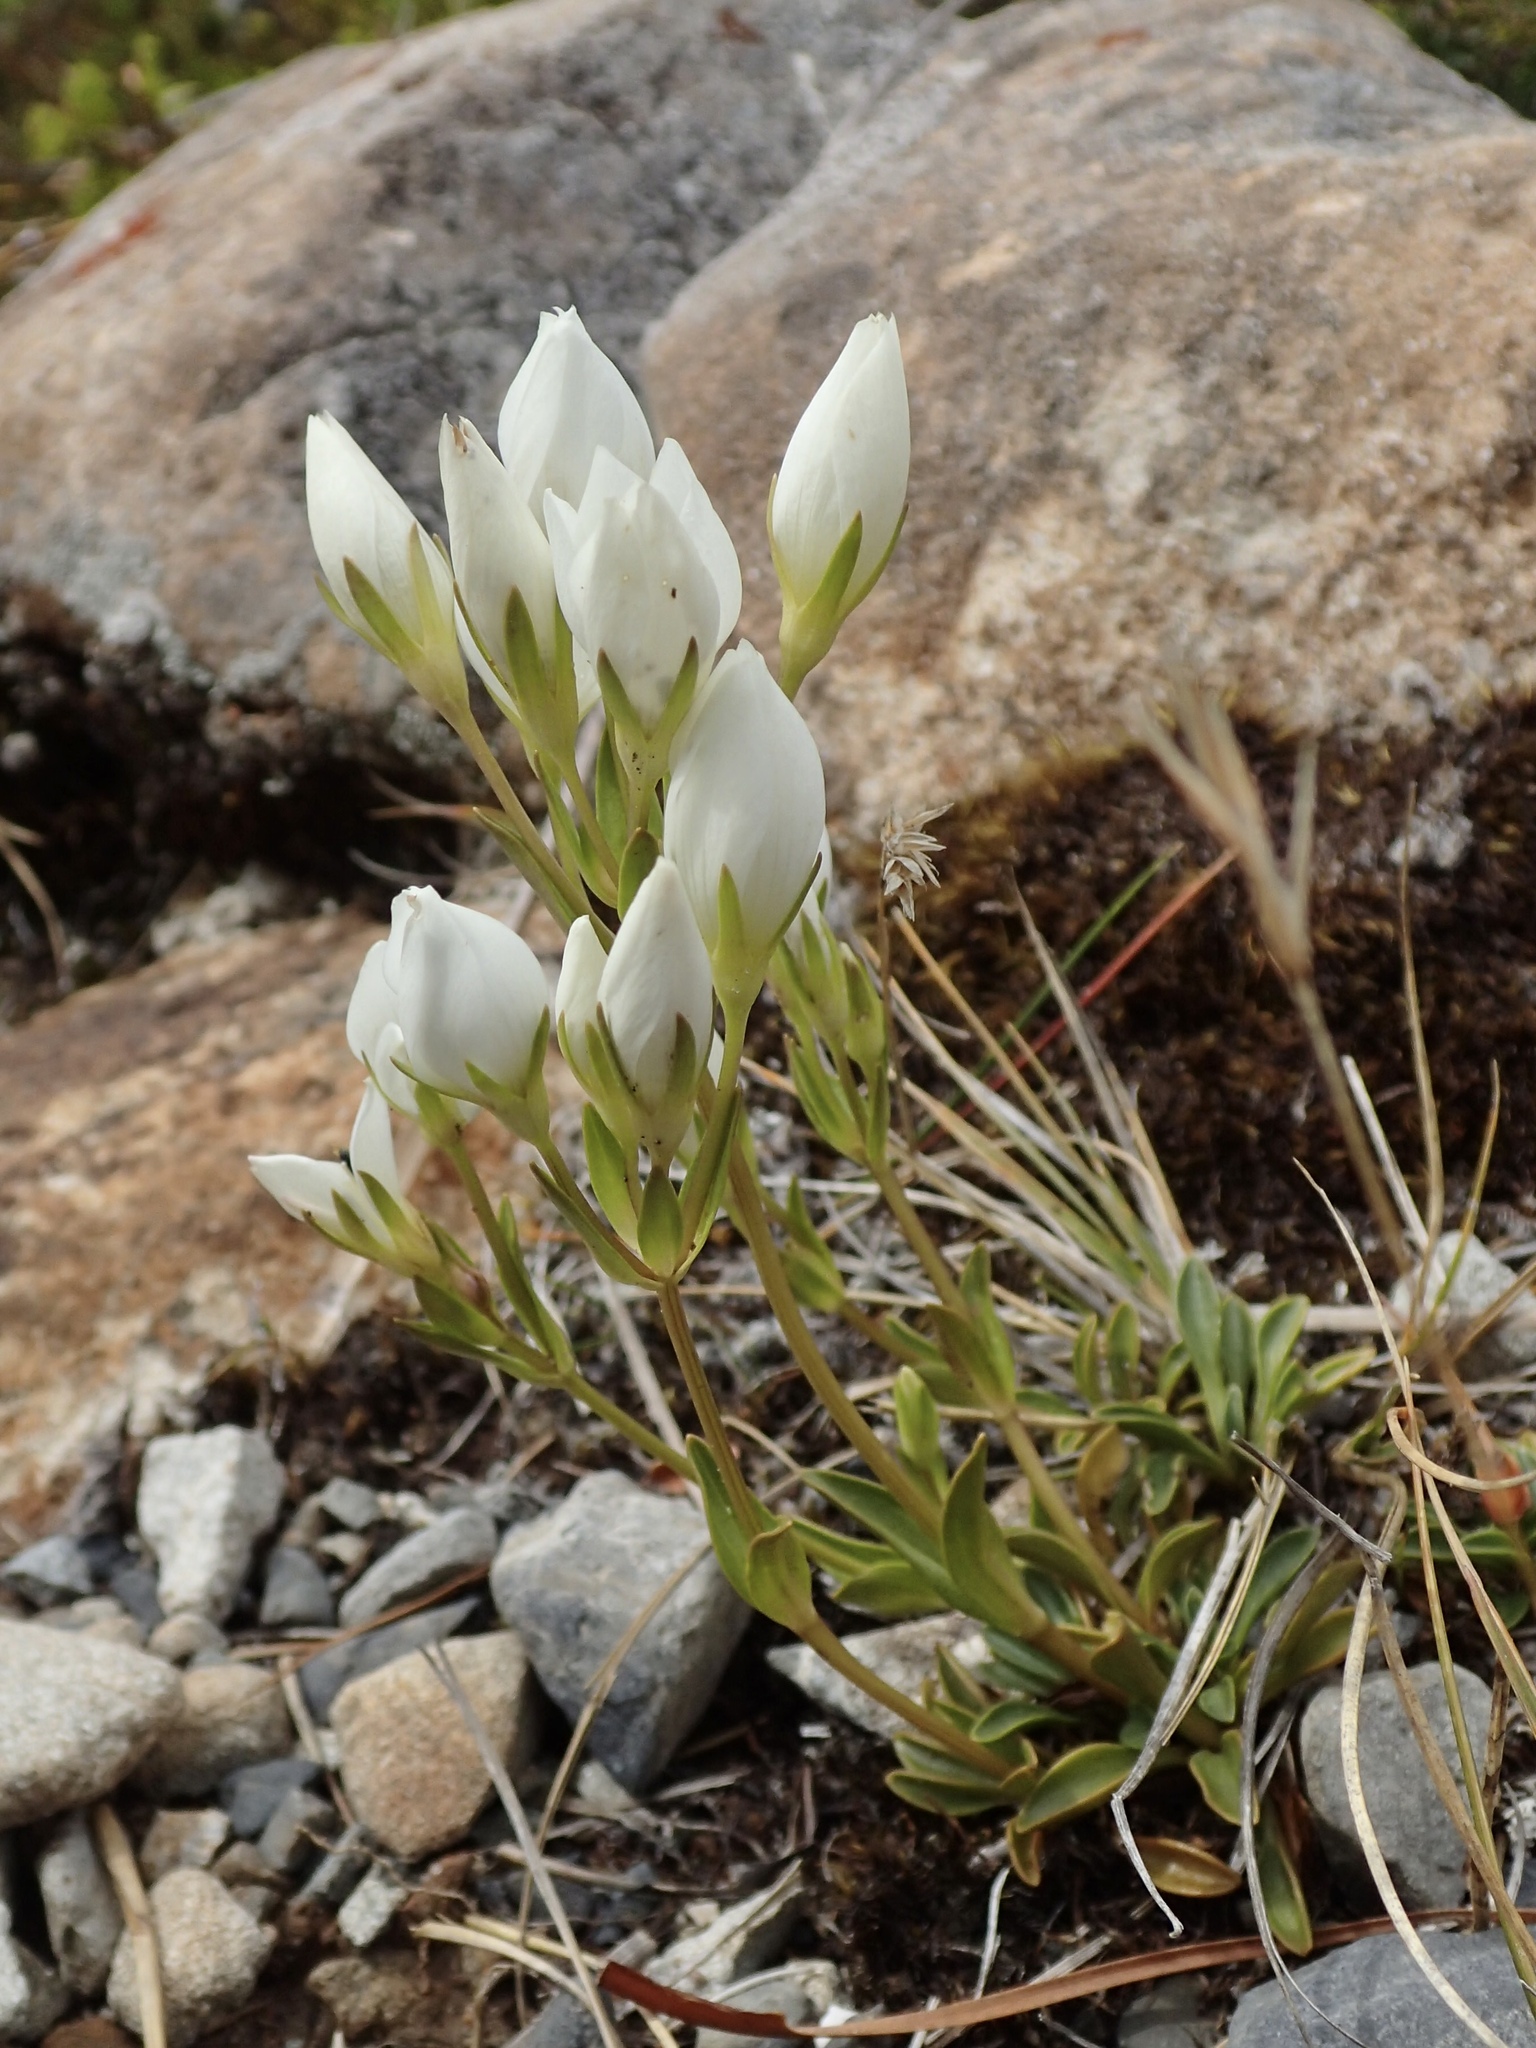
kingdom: Plantae
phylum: Tracheophyta
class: Magnoliopsida
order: Gentianales
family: Gentianaceae
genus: Gentianella
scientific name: Gentianella montana
